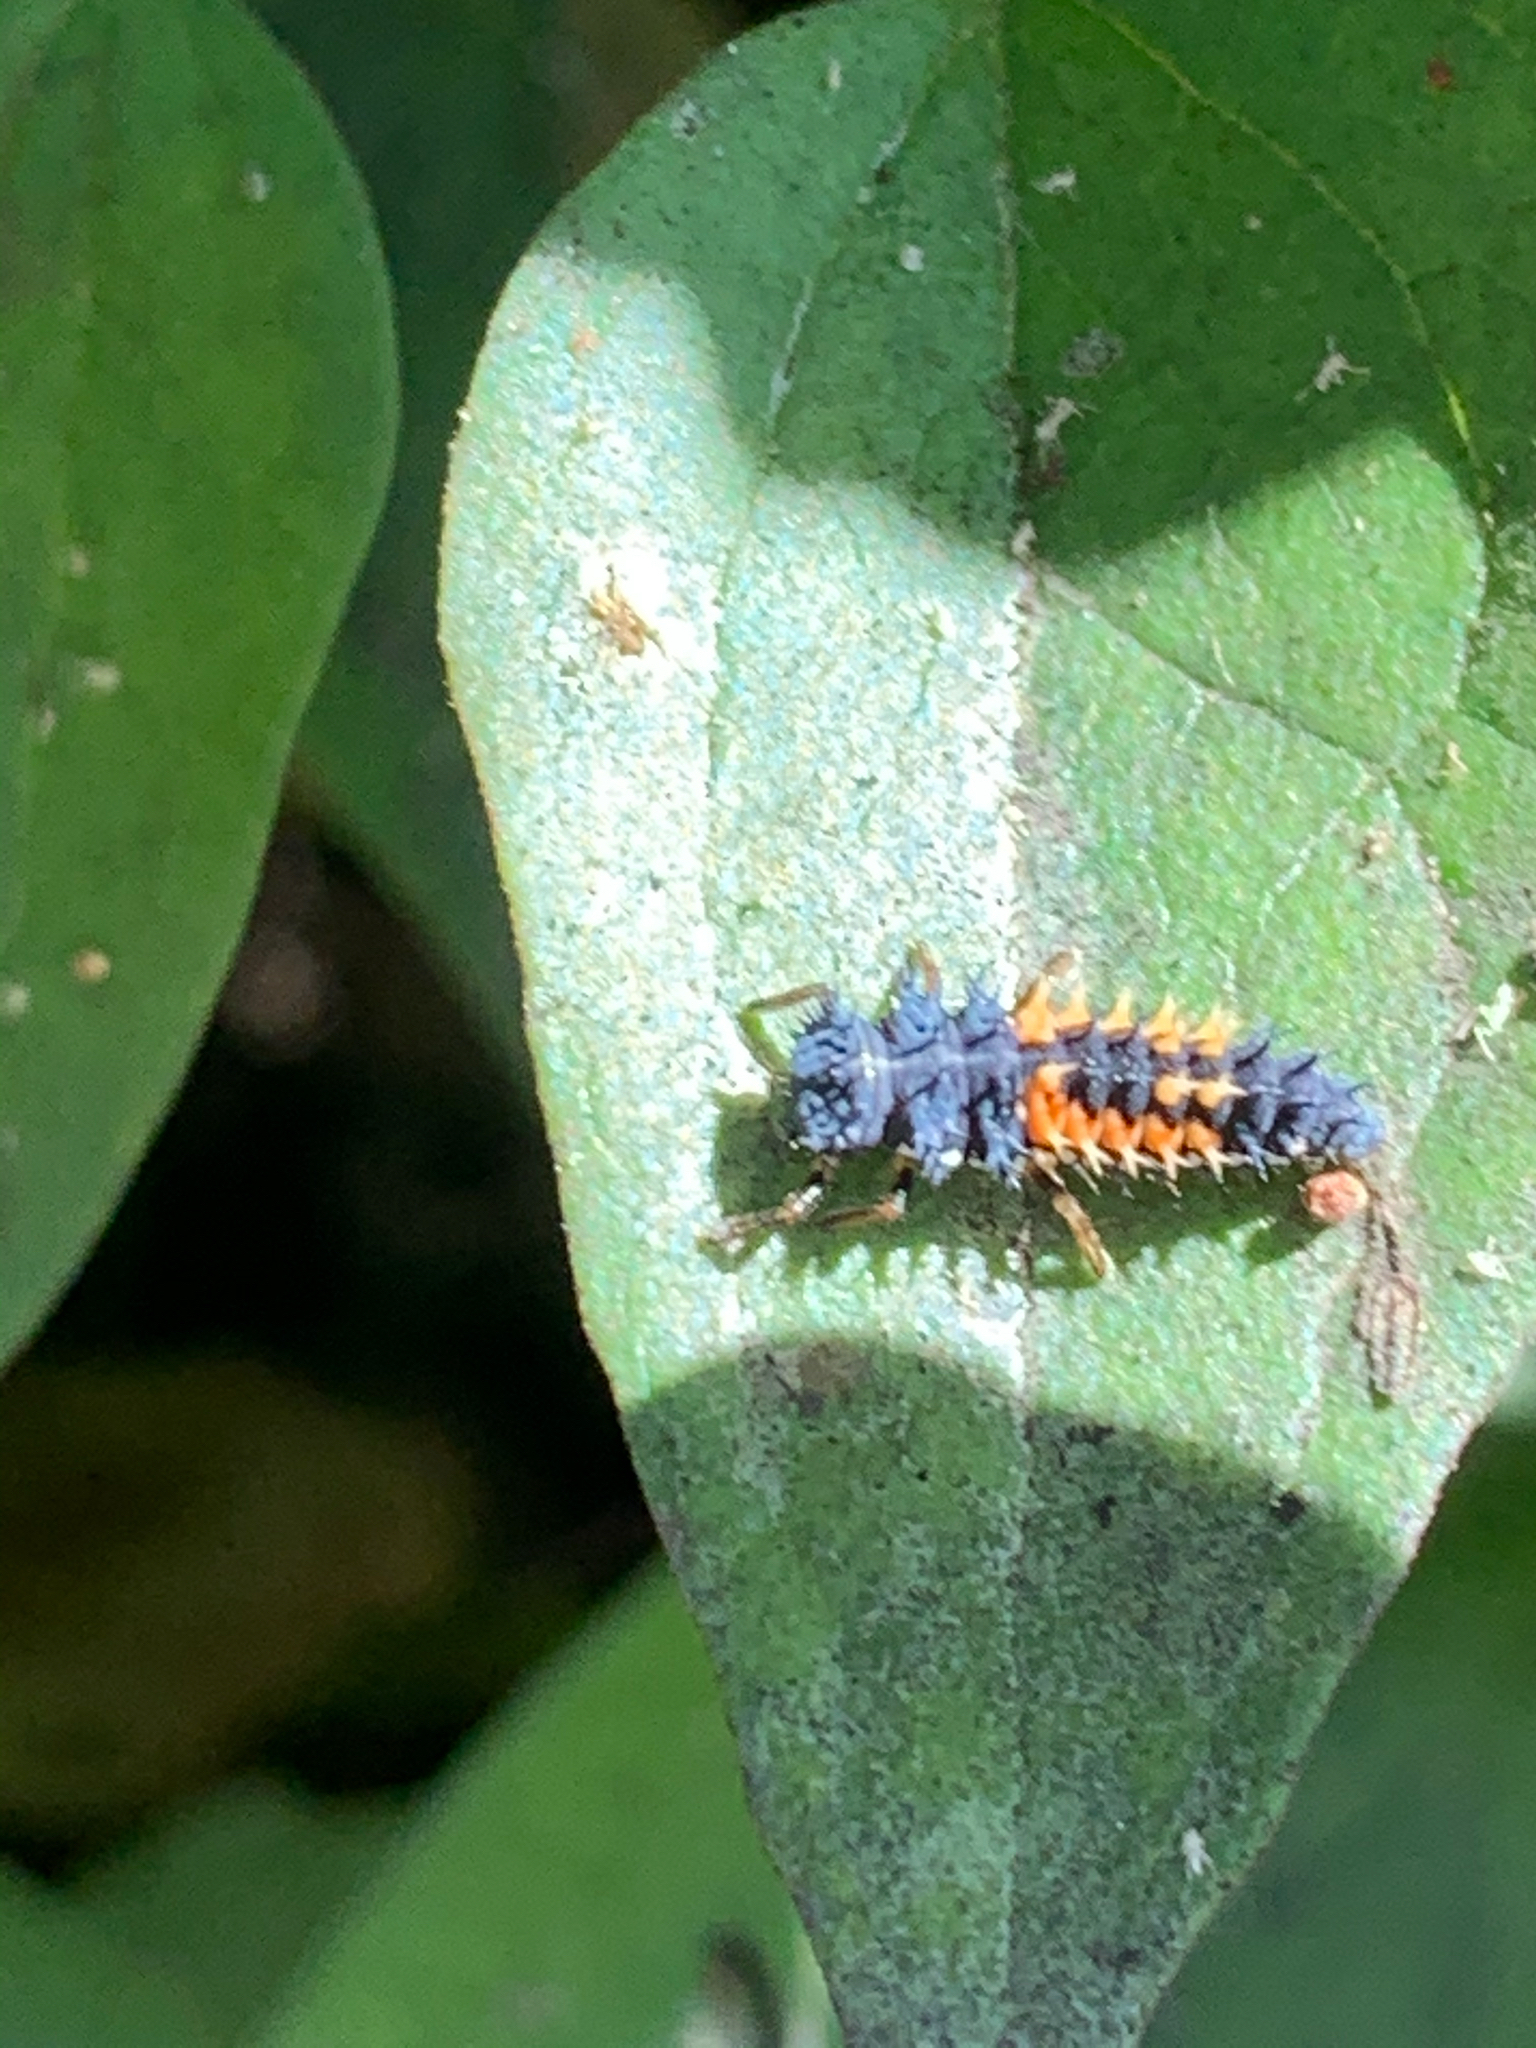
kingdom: Animalia
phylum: Arthropoda
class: Insecta
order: Coleoptera
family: Coccinellidae
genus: Harmonia
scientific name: Harmonia axyridis
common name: Harlequin ladybird
